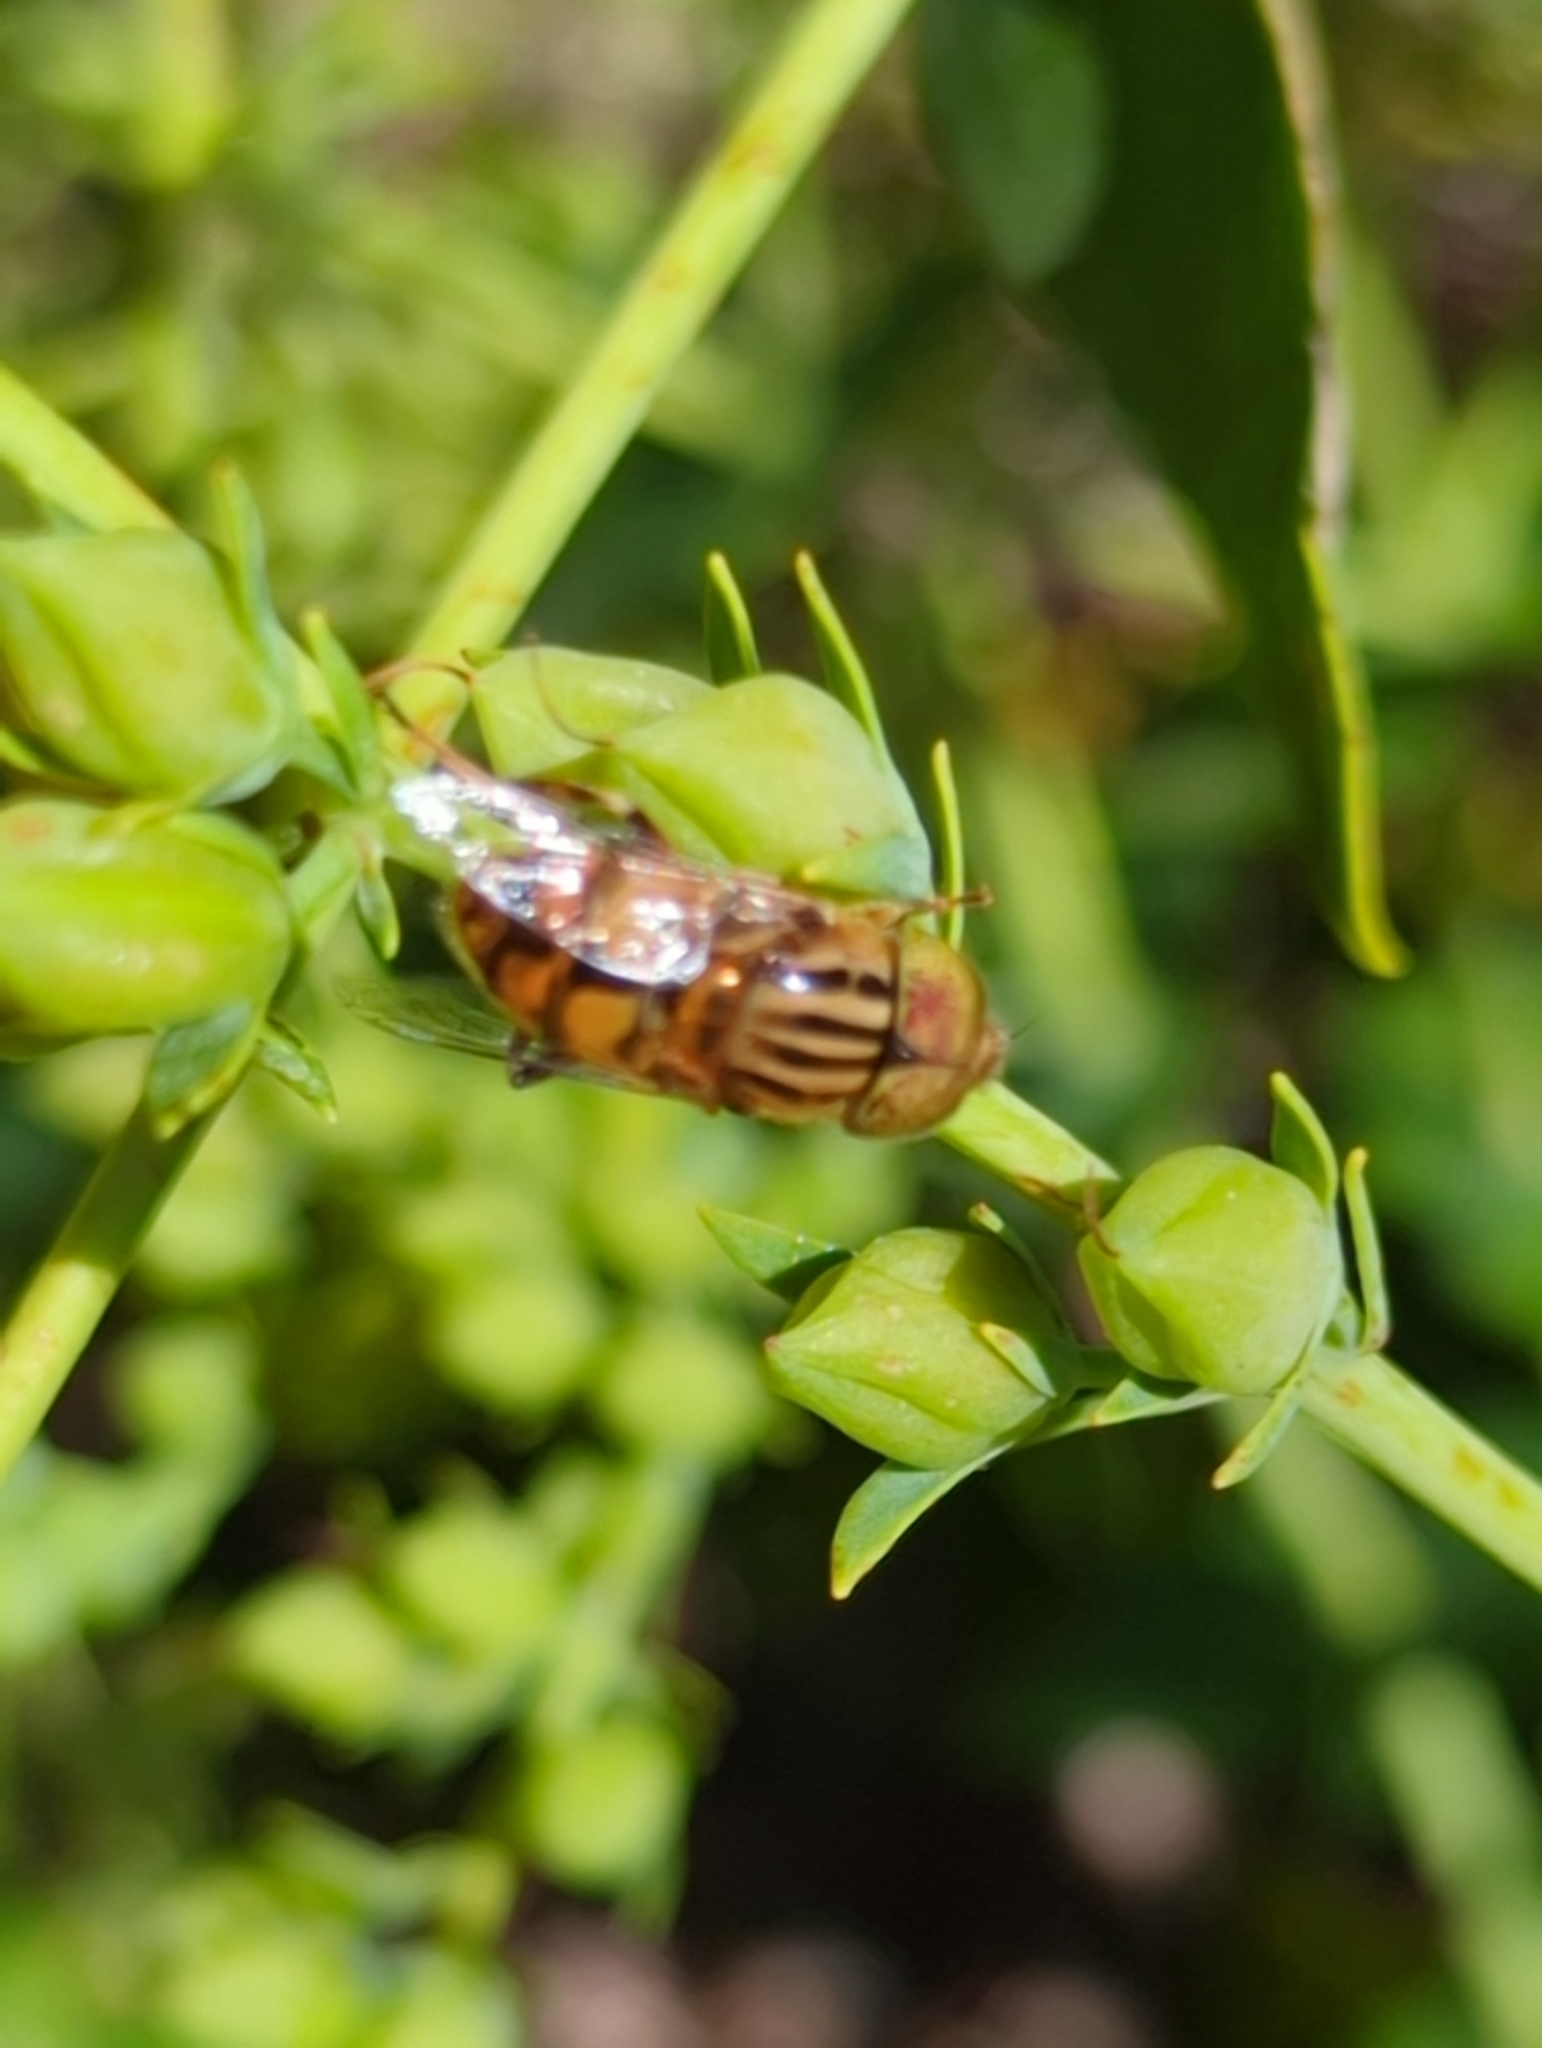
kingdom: Animalia
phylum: Arthropoda
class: Insecta
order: Diptera
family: Syrphidae
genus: Eristalinus
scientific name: Eristalinus punctulatus
